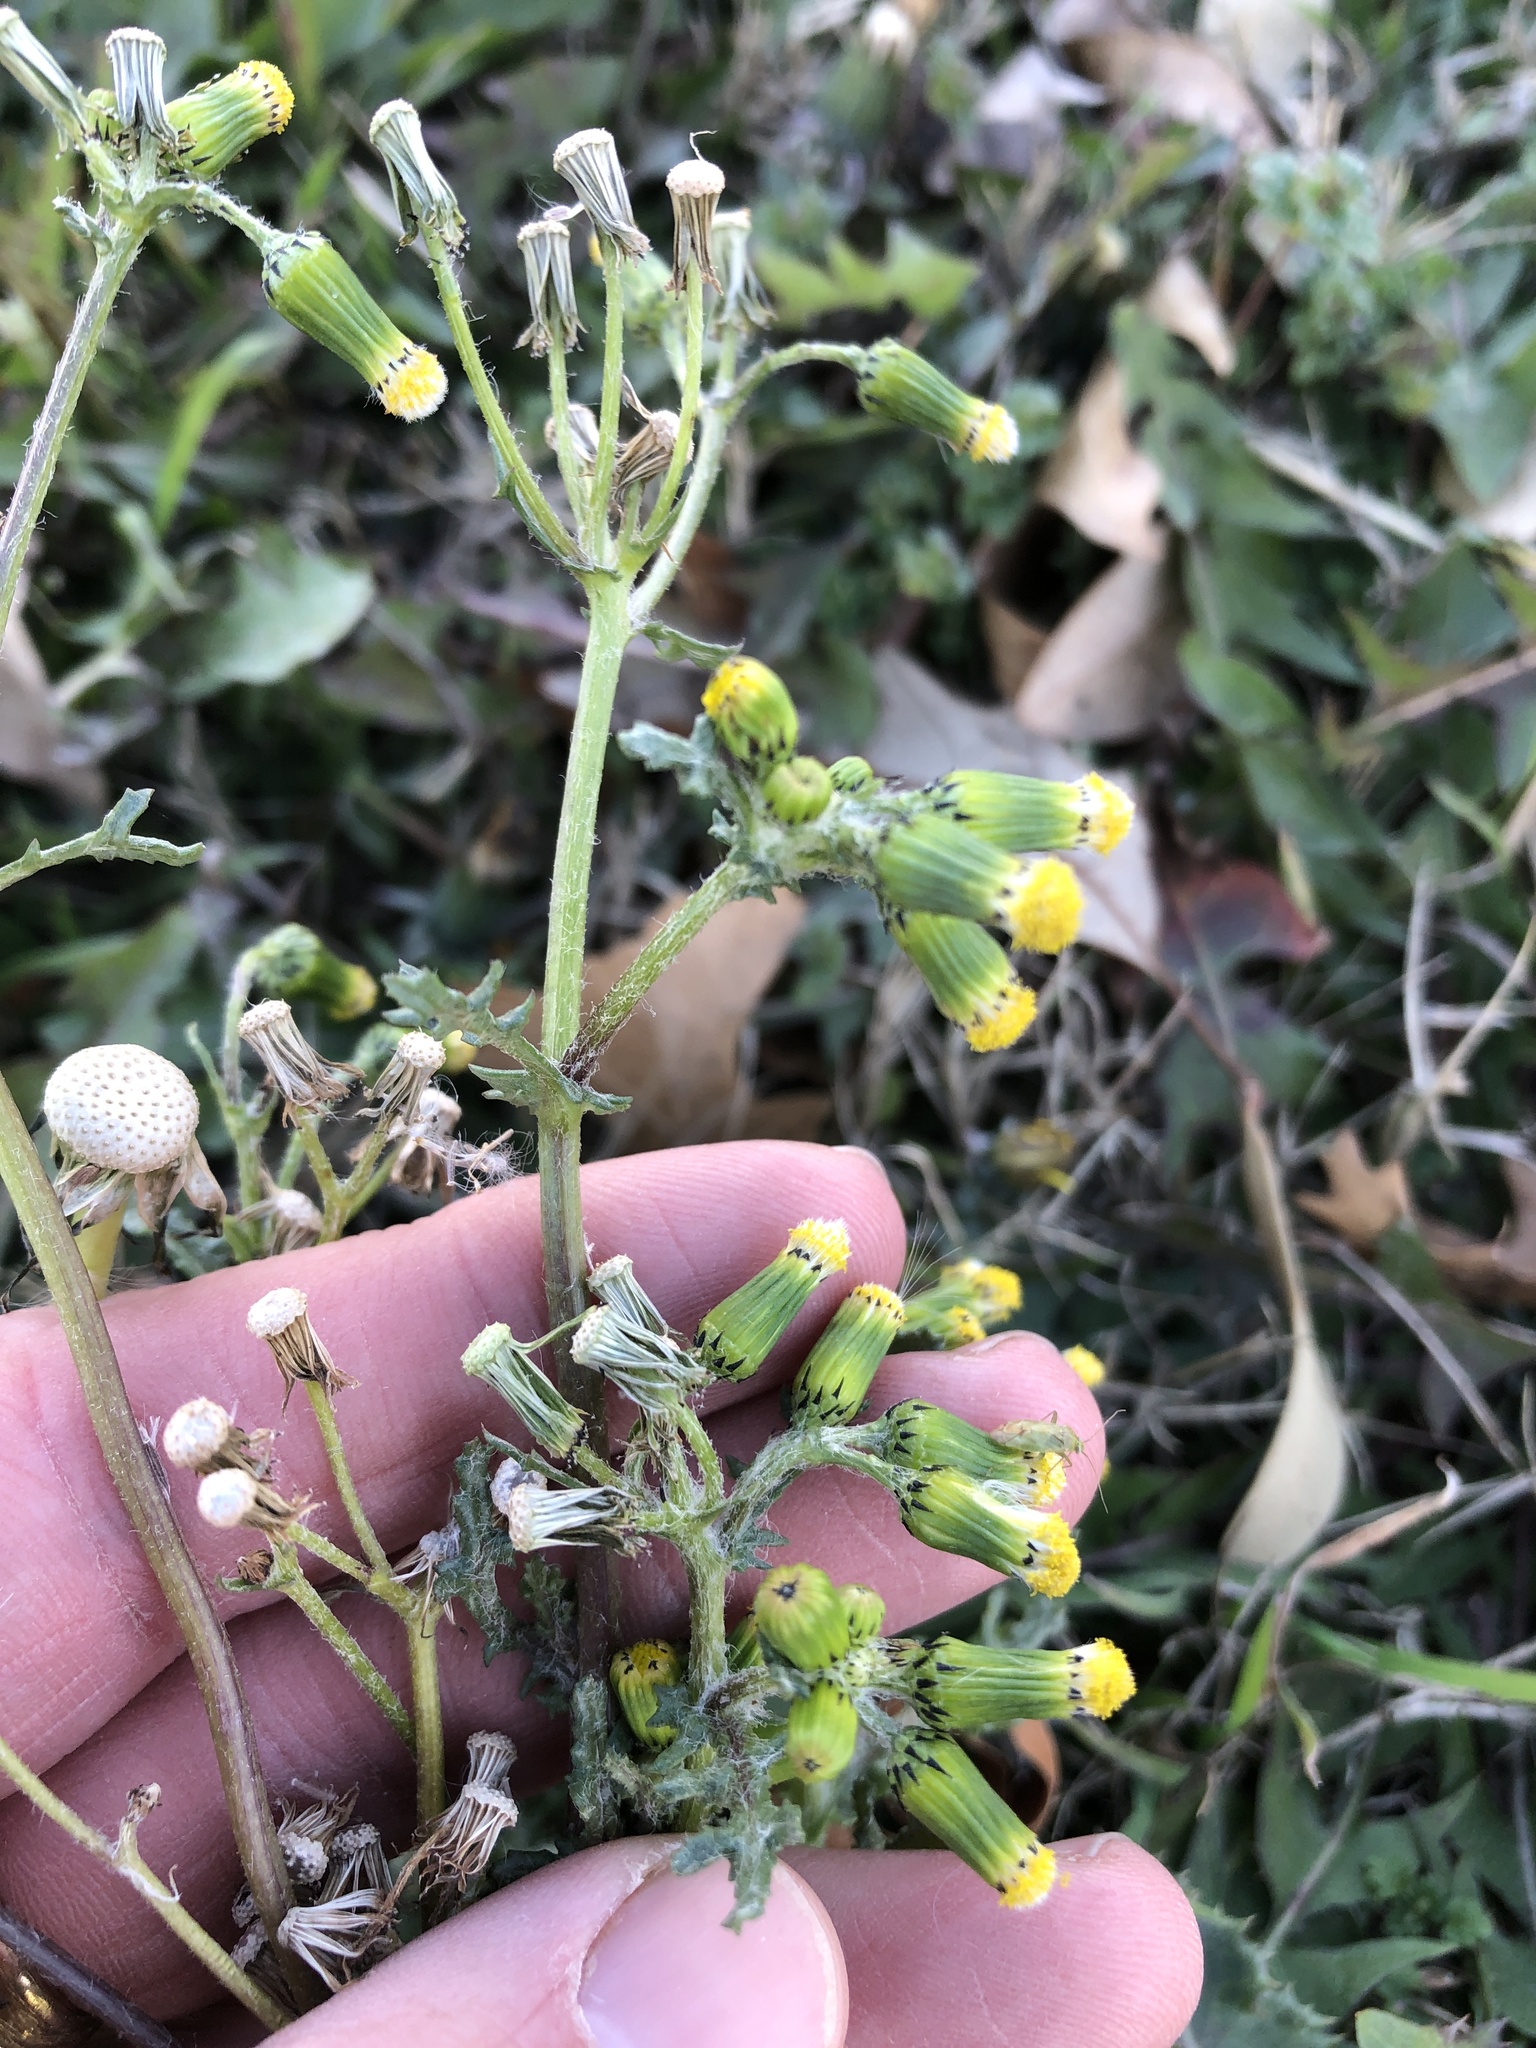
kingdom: Plantae
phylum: Tracheophyta
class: Magnoliopsida
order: Asterales
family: Asteraceae
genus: Senecio
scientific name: Senecio vulgaris
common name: Old-man-in-the-spring
